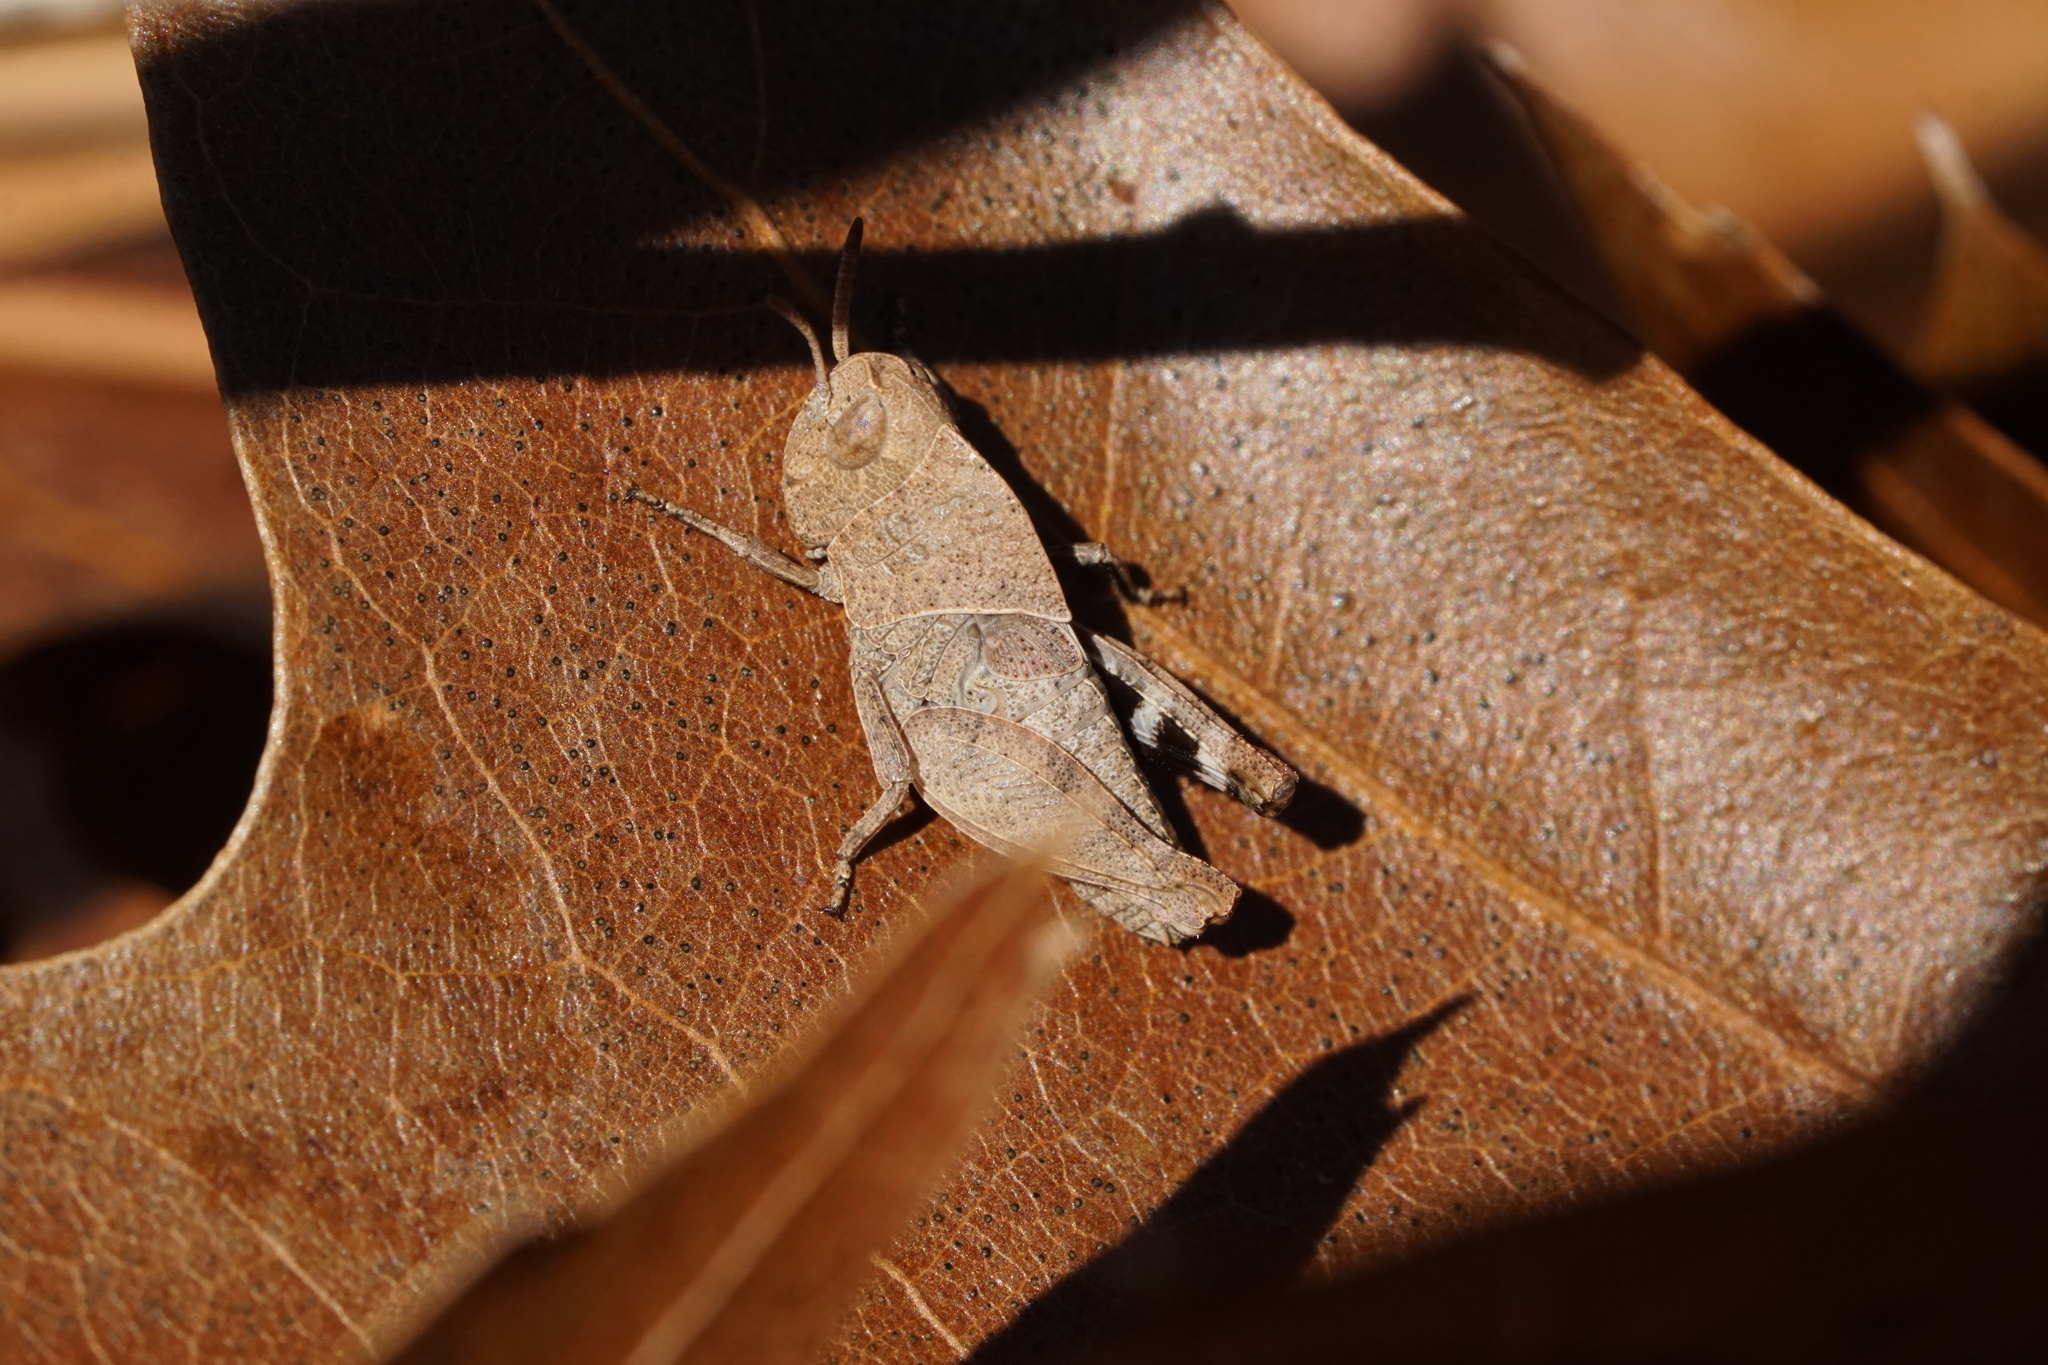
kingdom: Animalia
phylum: Arthropoda
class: Insecta
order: Orthoptera
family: Acrididae
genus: Arphia
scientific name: Arphia sulphurea
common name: Spring yellow-winged locust
